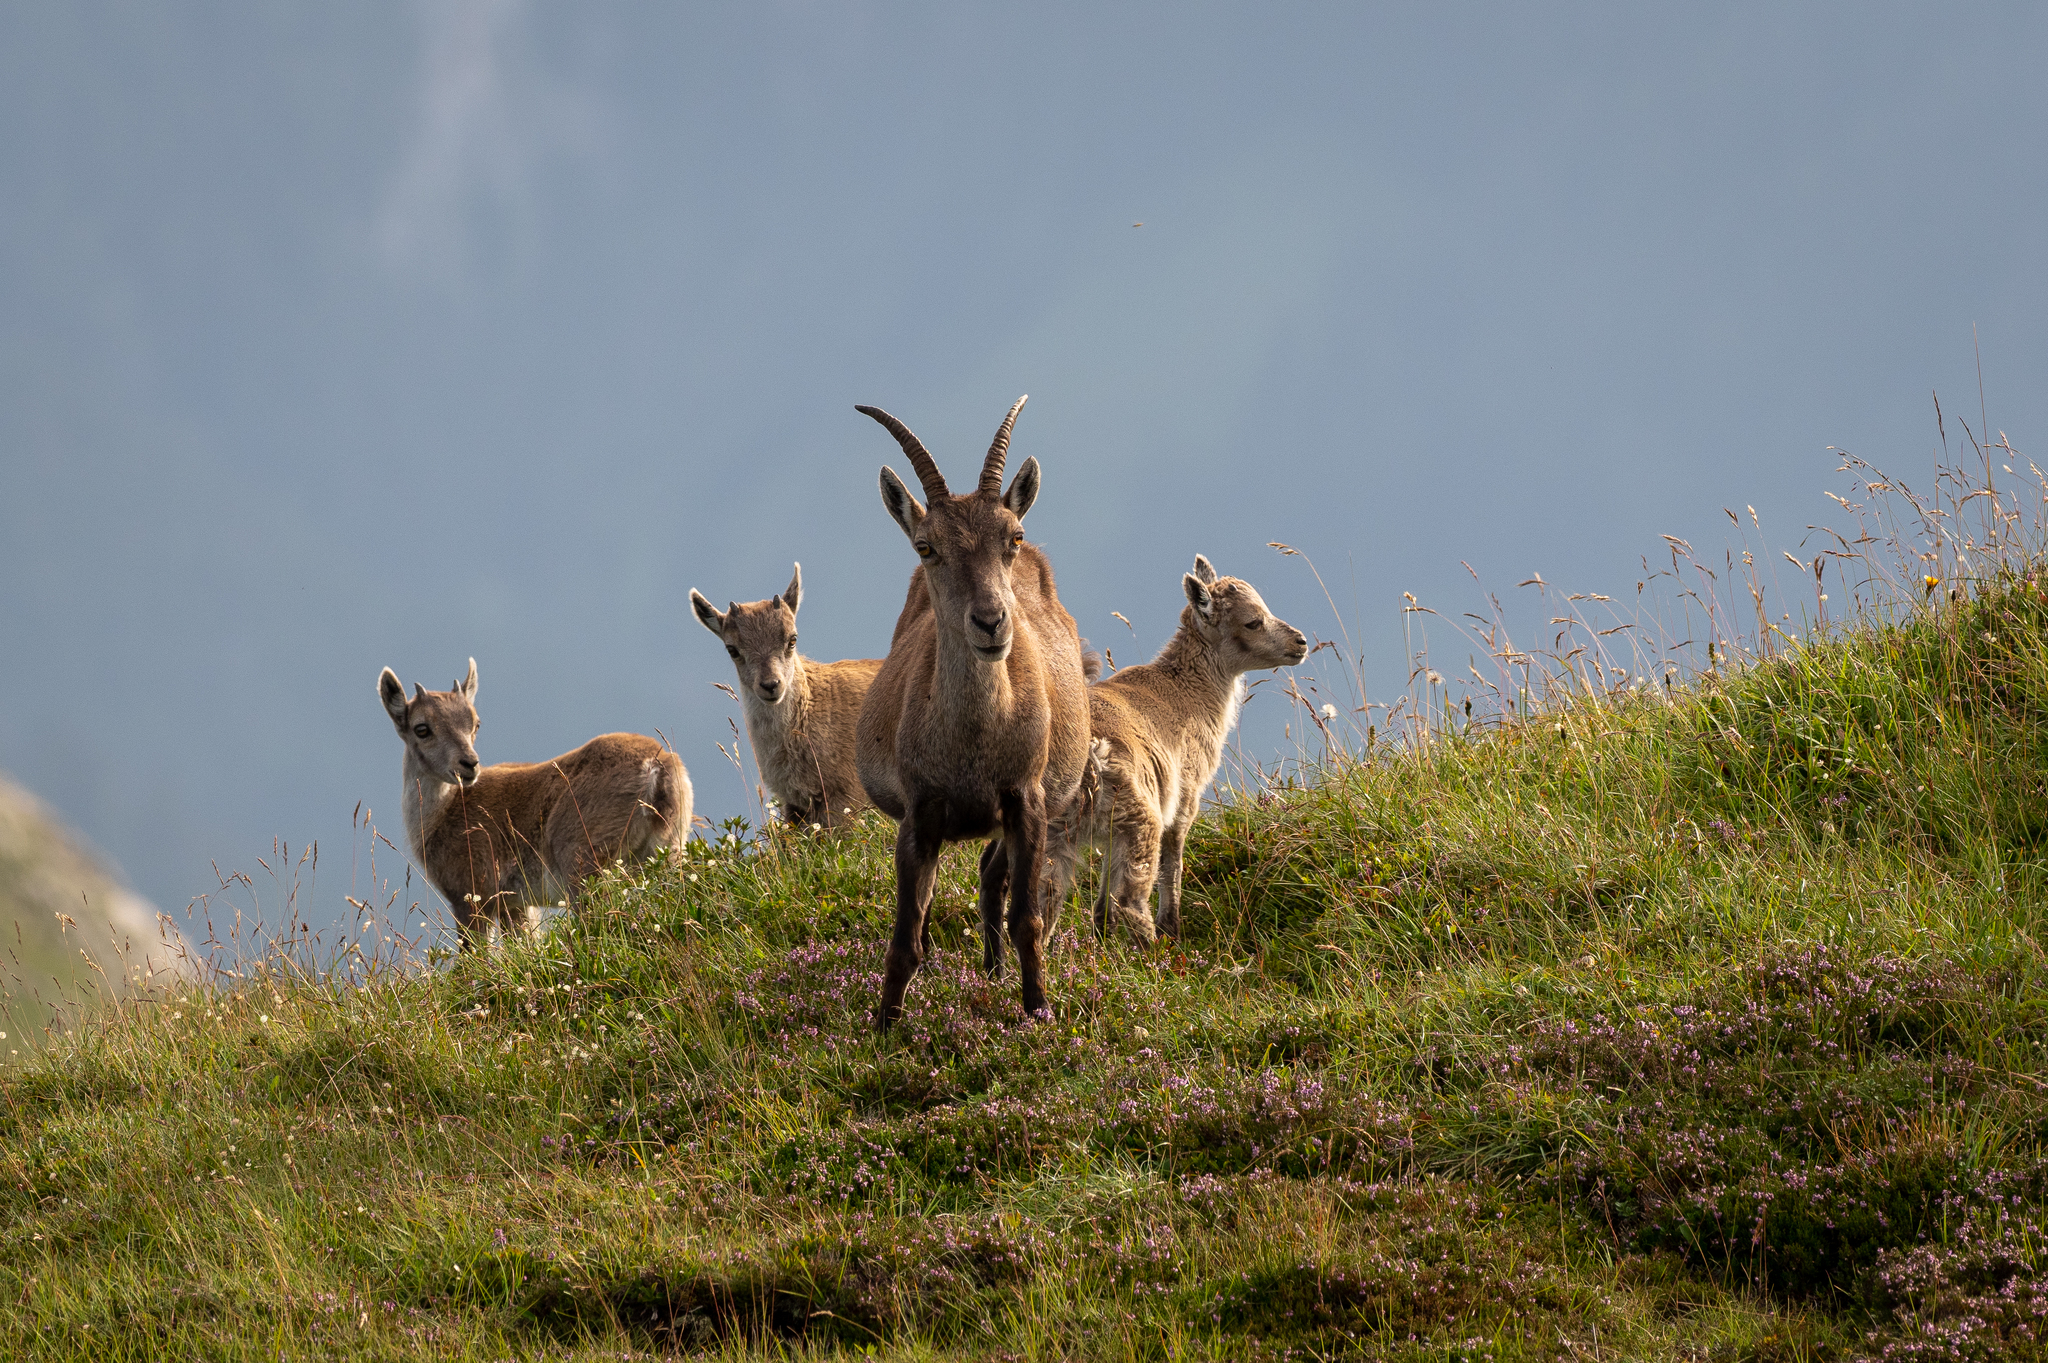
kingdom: Animalia
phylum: Chordata
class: Mammalia
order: Artiodactyla
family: Bovidae
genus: Capra
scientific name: Capra ibex
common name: Alpine ibex
